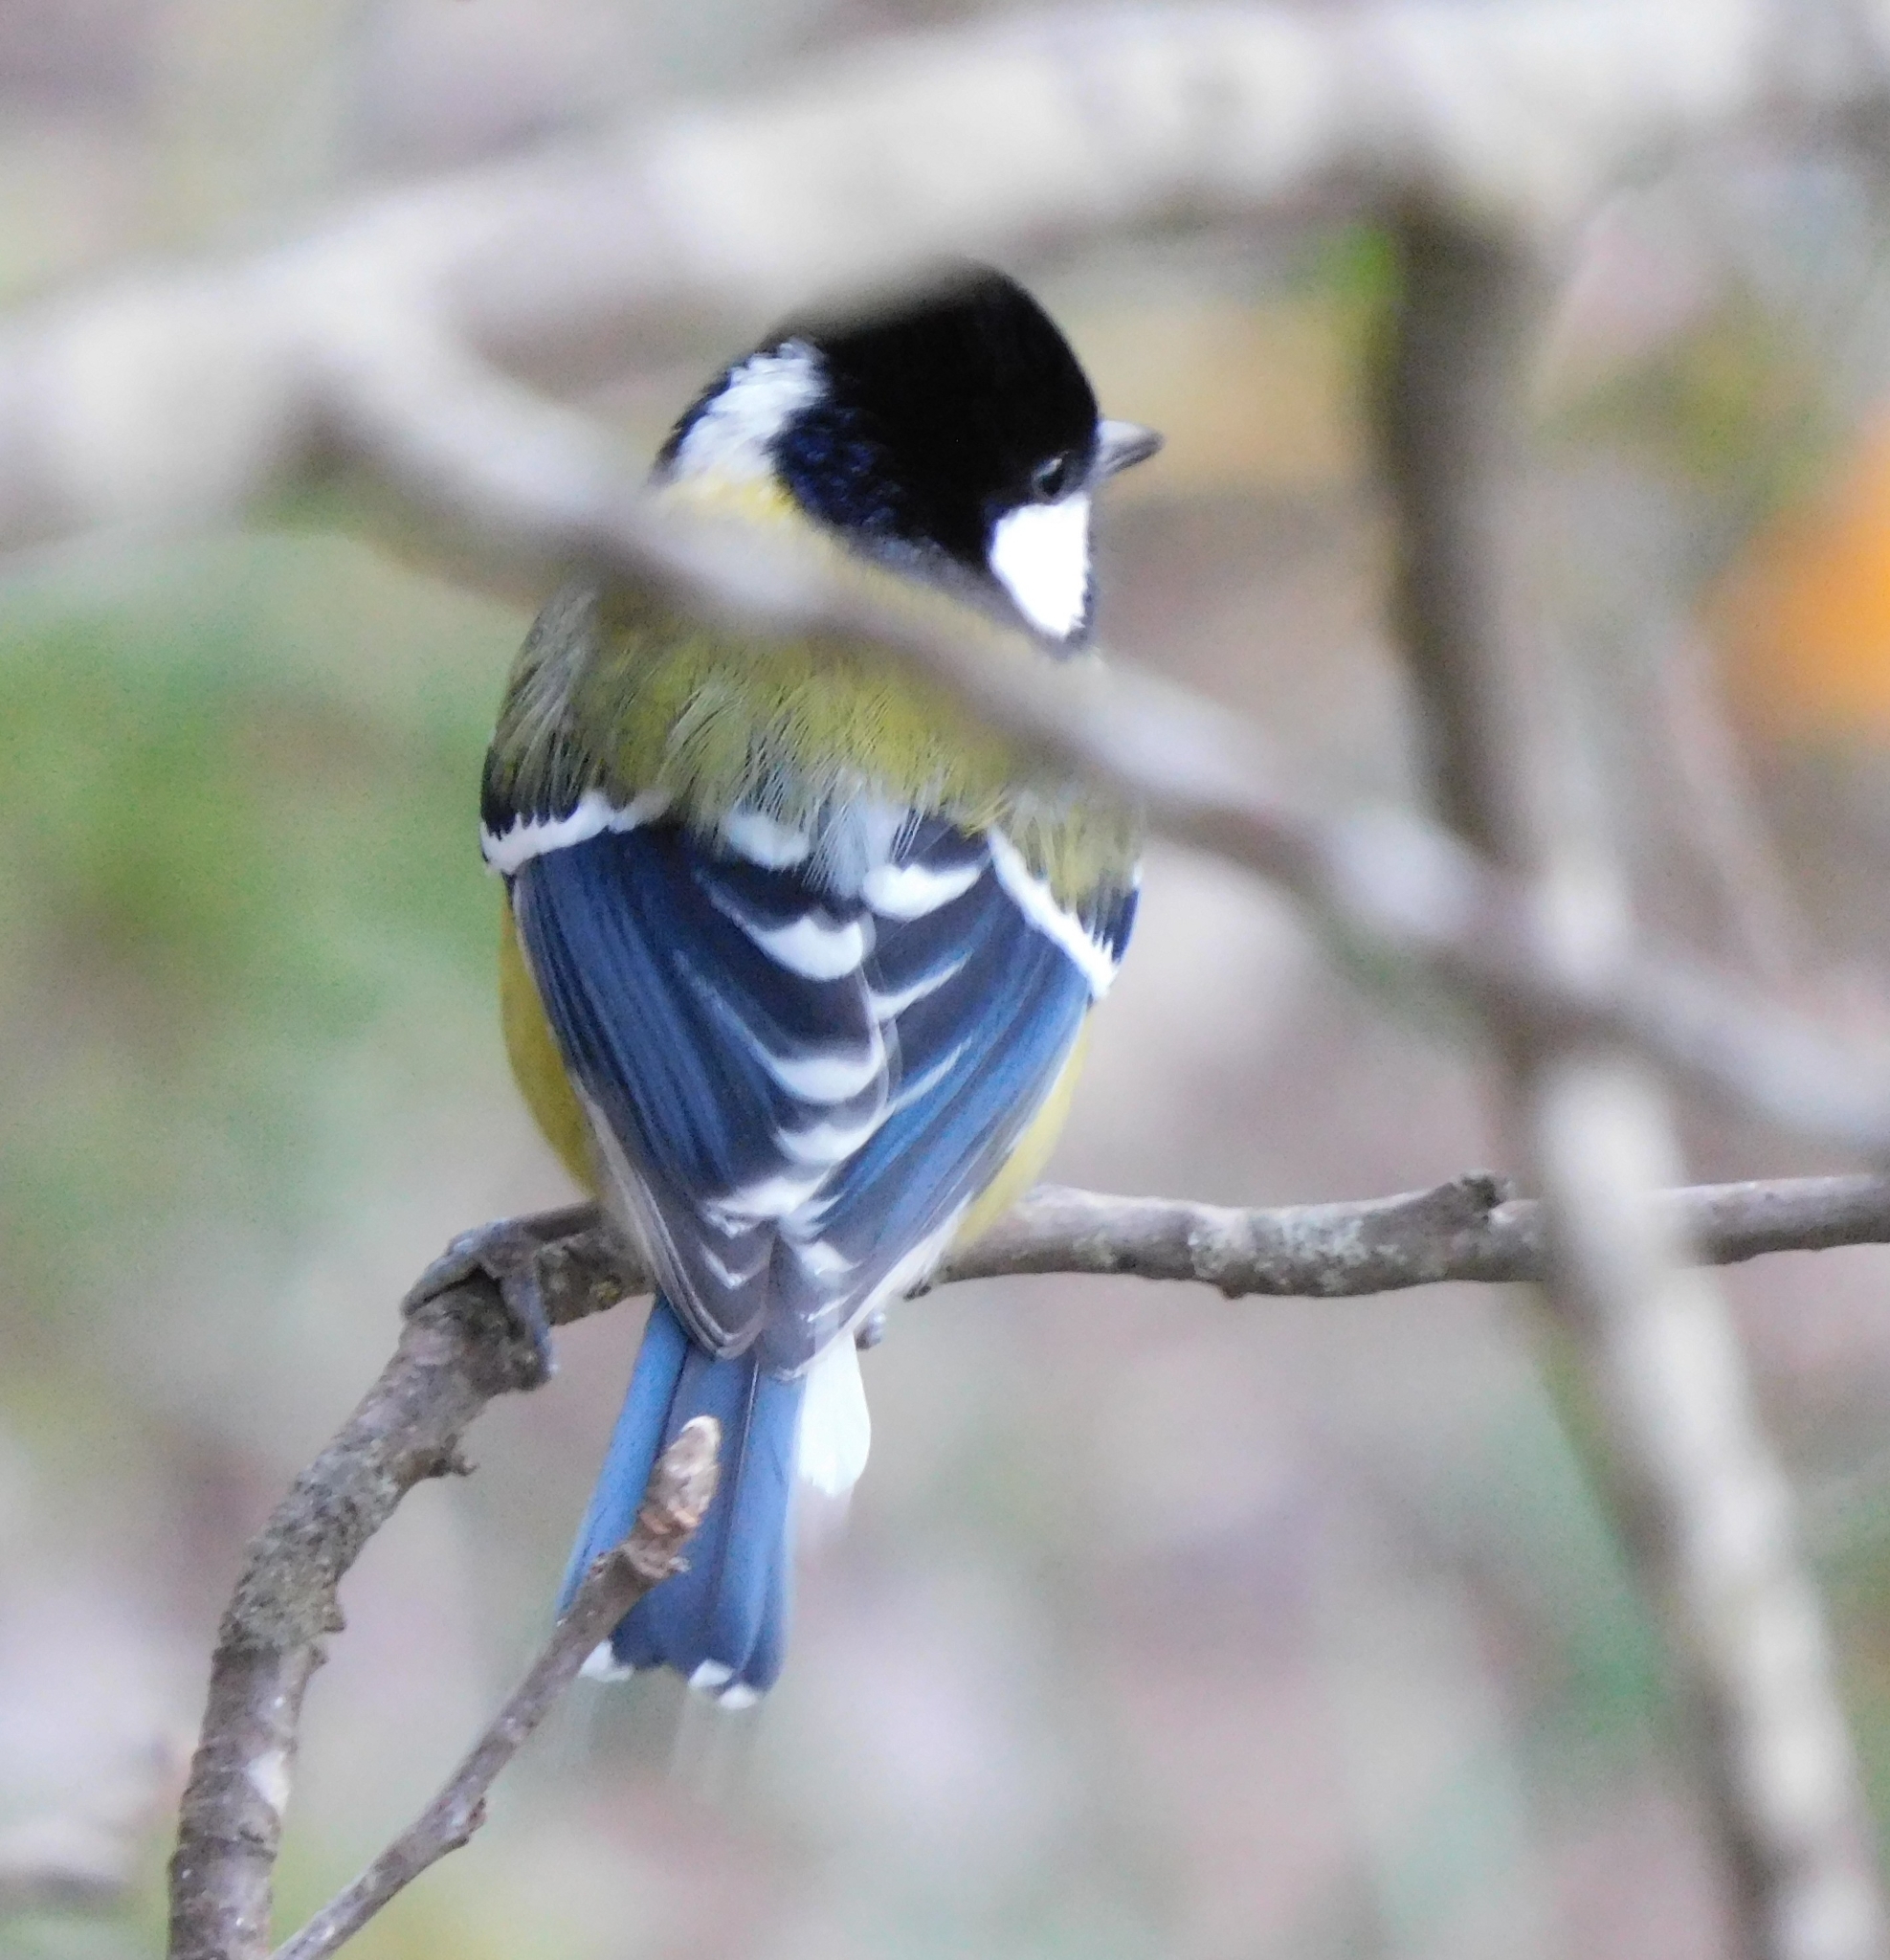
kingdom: Animalia
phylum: Chordata
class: Aves
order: Passeriformes
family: Paridae
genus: Parus
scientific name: Parus monticolus
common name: Green-backed tit
